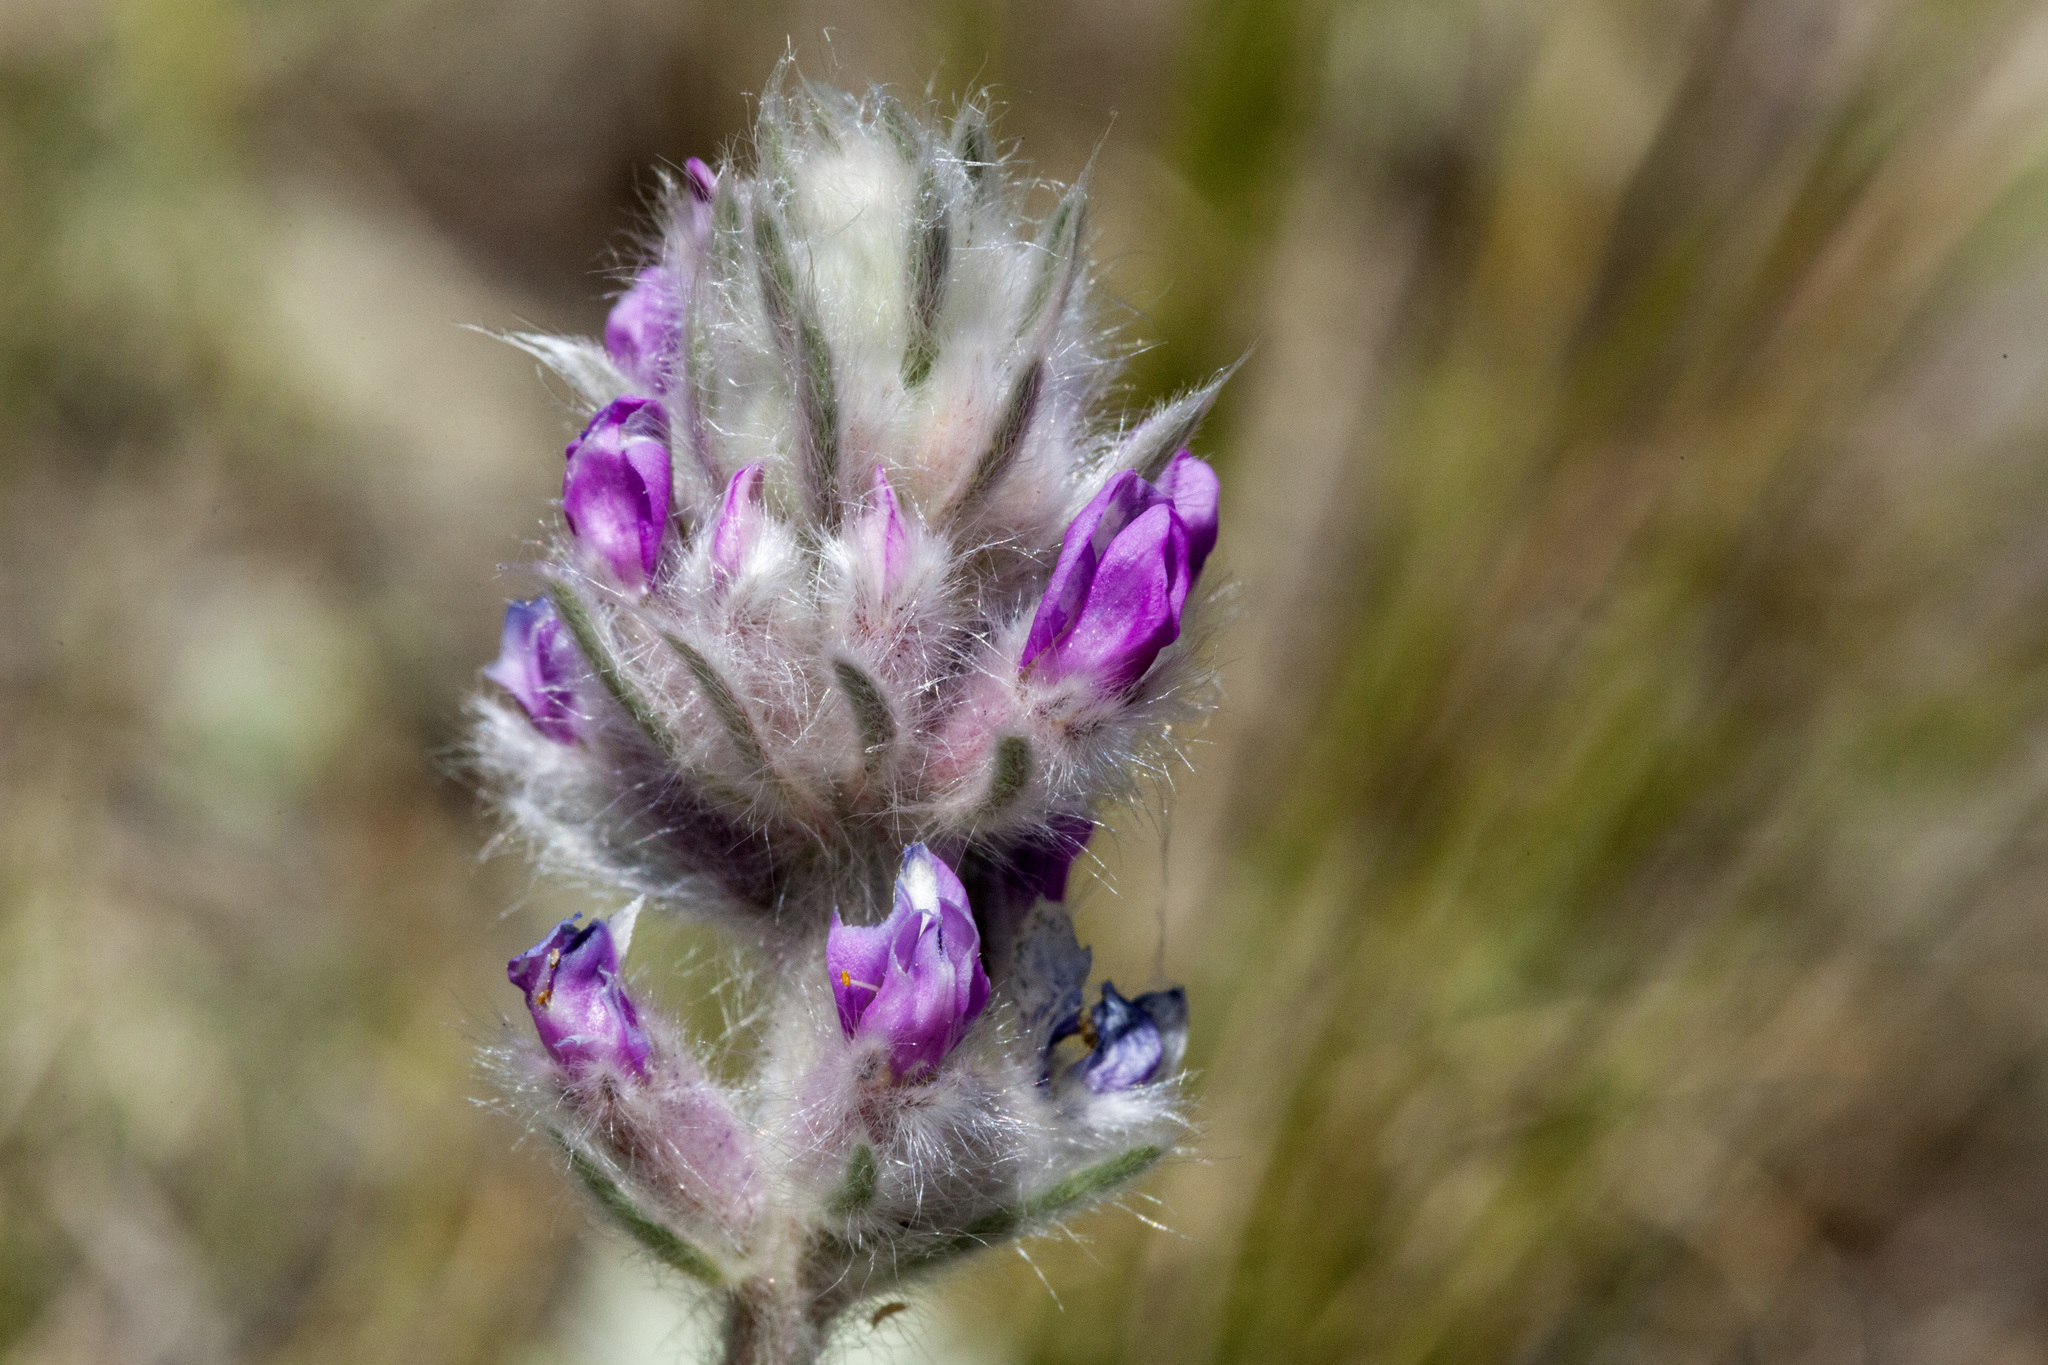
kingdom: Plantae
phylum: Tracheophyta
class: Magnoliopsida
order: Fabales
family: Fabaceae
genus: Oxytropis
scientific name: Oxytropis splendens
